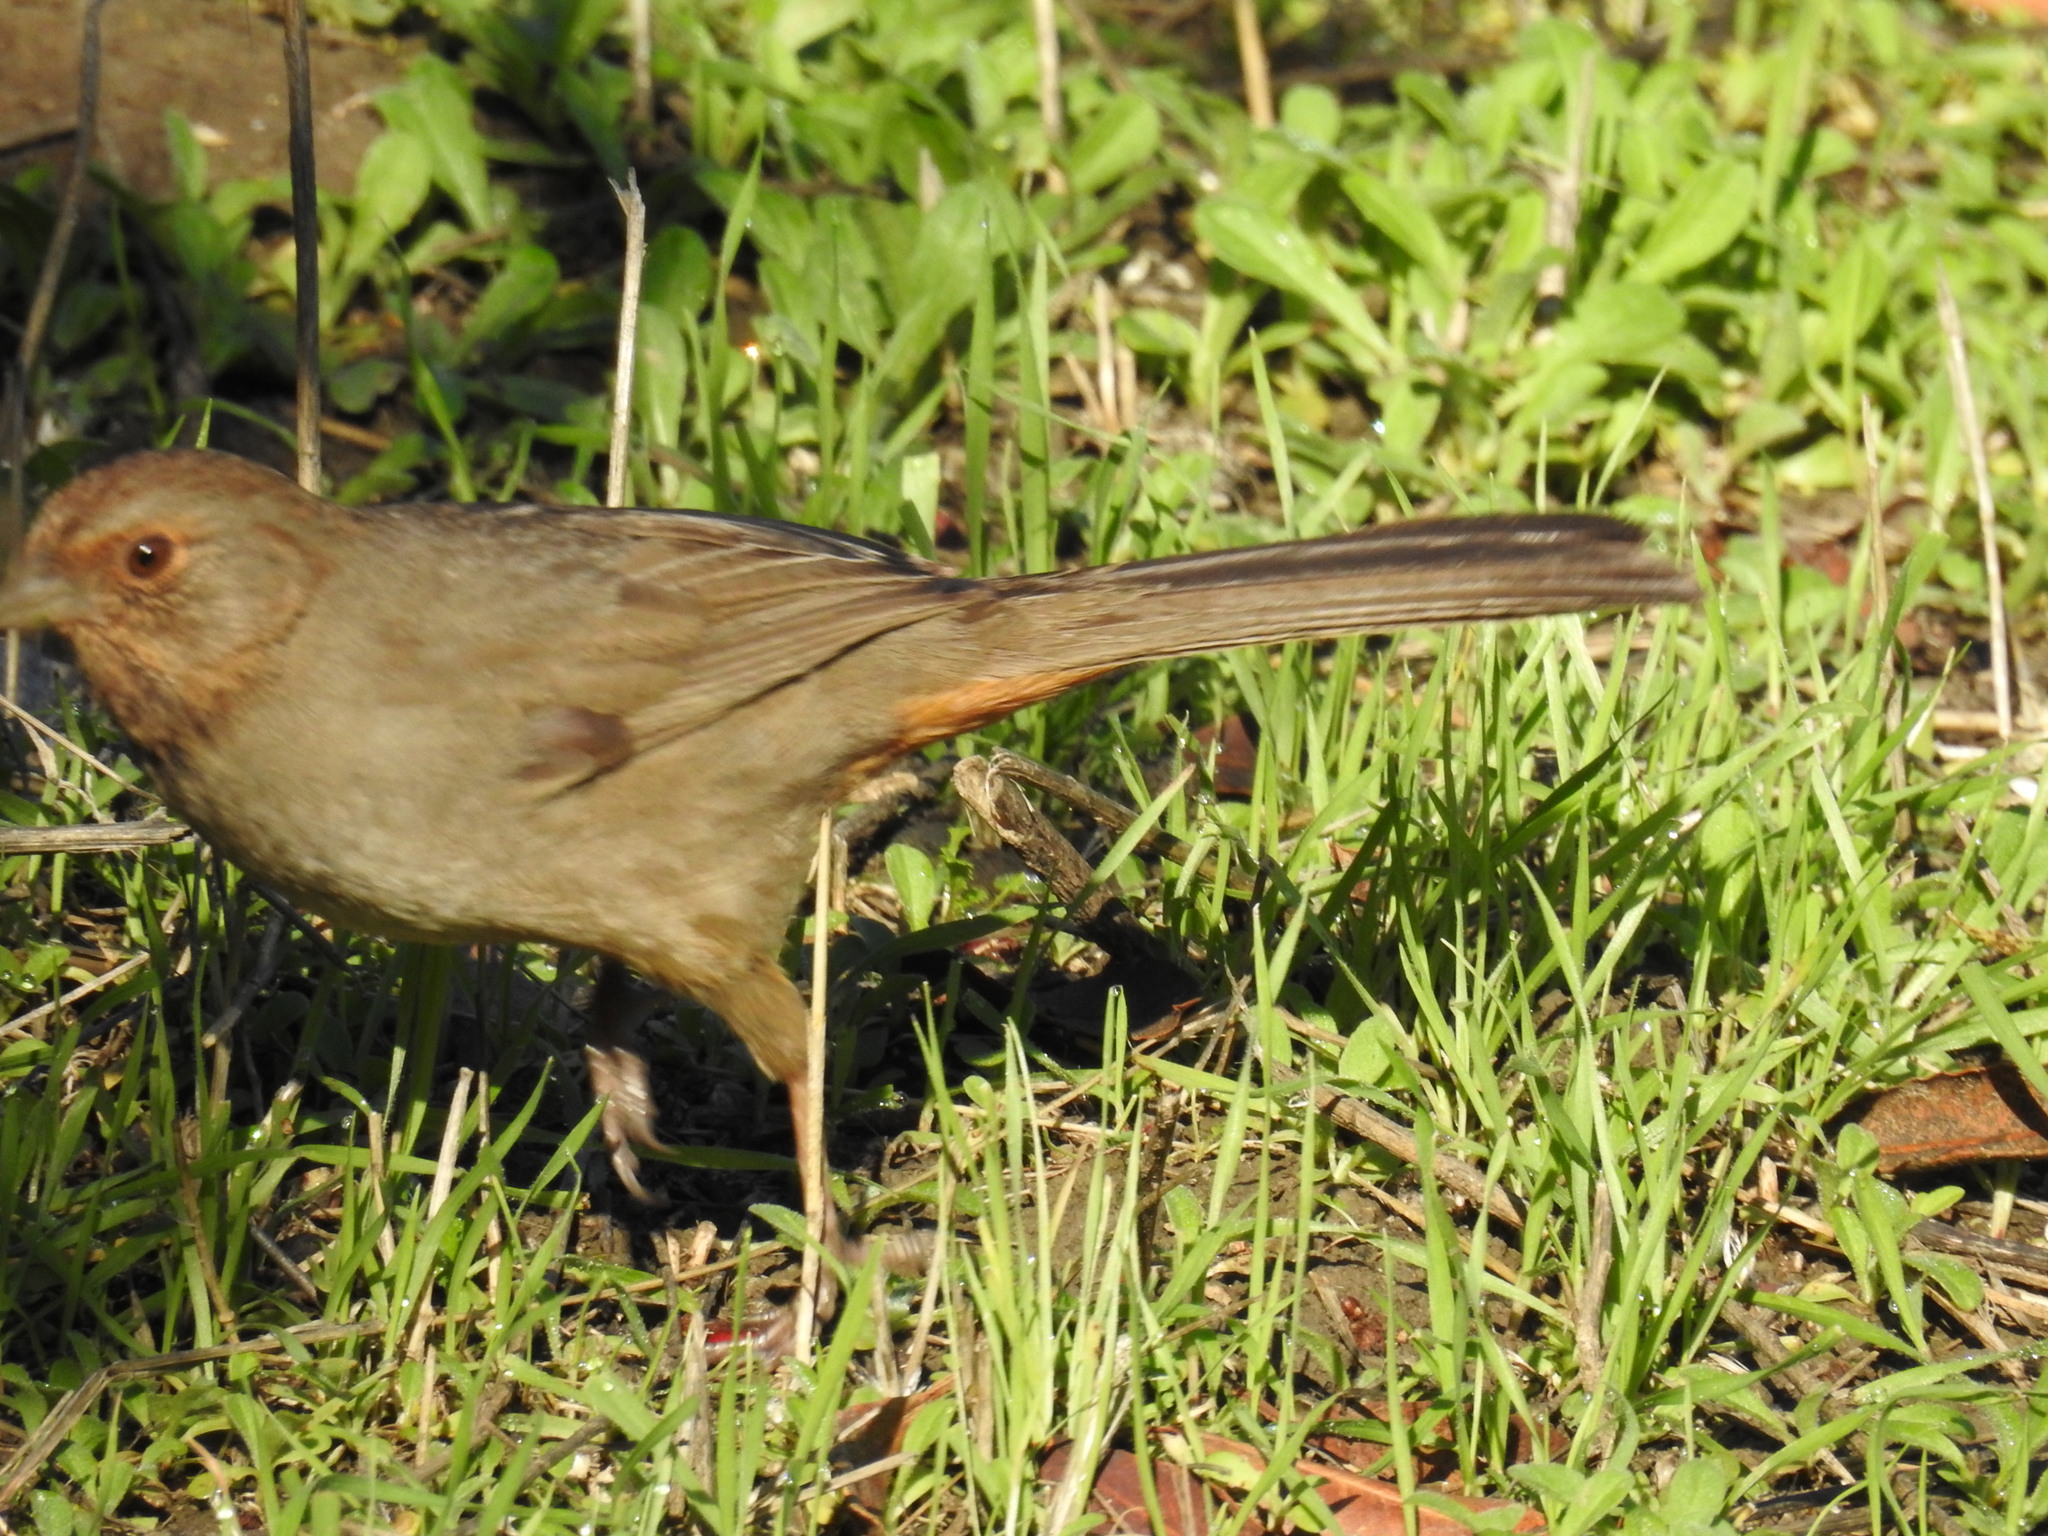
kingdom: Animalia
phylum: Chordata
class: Aves
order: Passeriformes
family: Passerellidae
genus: Melozone
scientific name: Melozone crissalis
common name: California towhee
